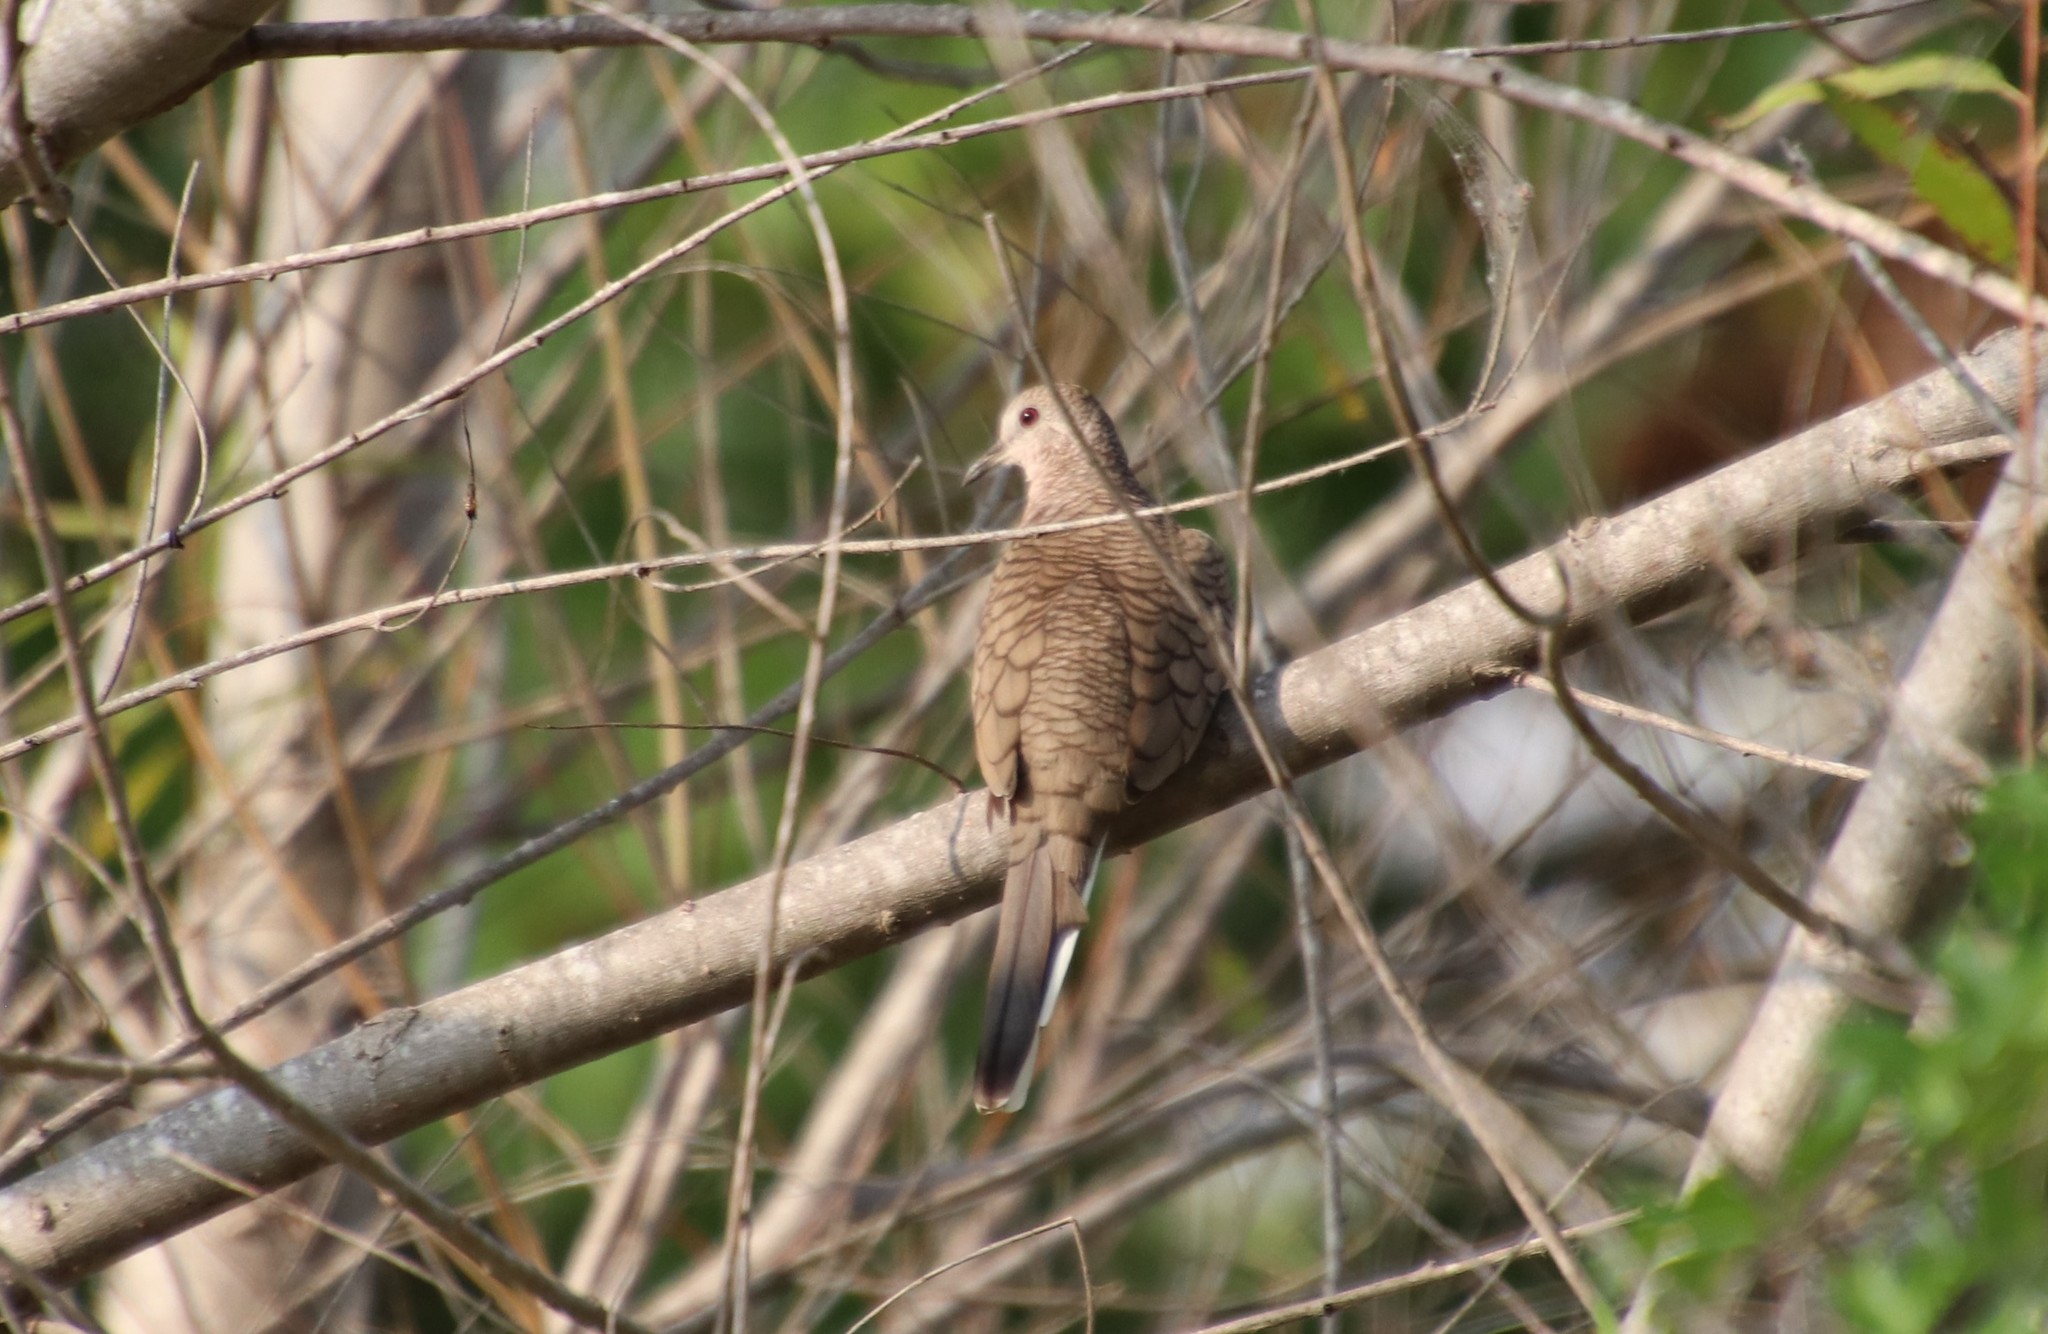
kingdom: Animalia
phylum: Chordata
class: Aves
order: Columbiformes
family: Columbidae
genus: Columbina
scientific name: Columbina inca
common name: Inca dove
